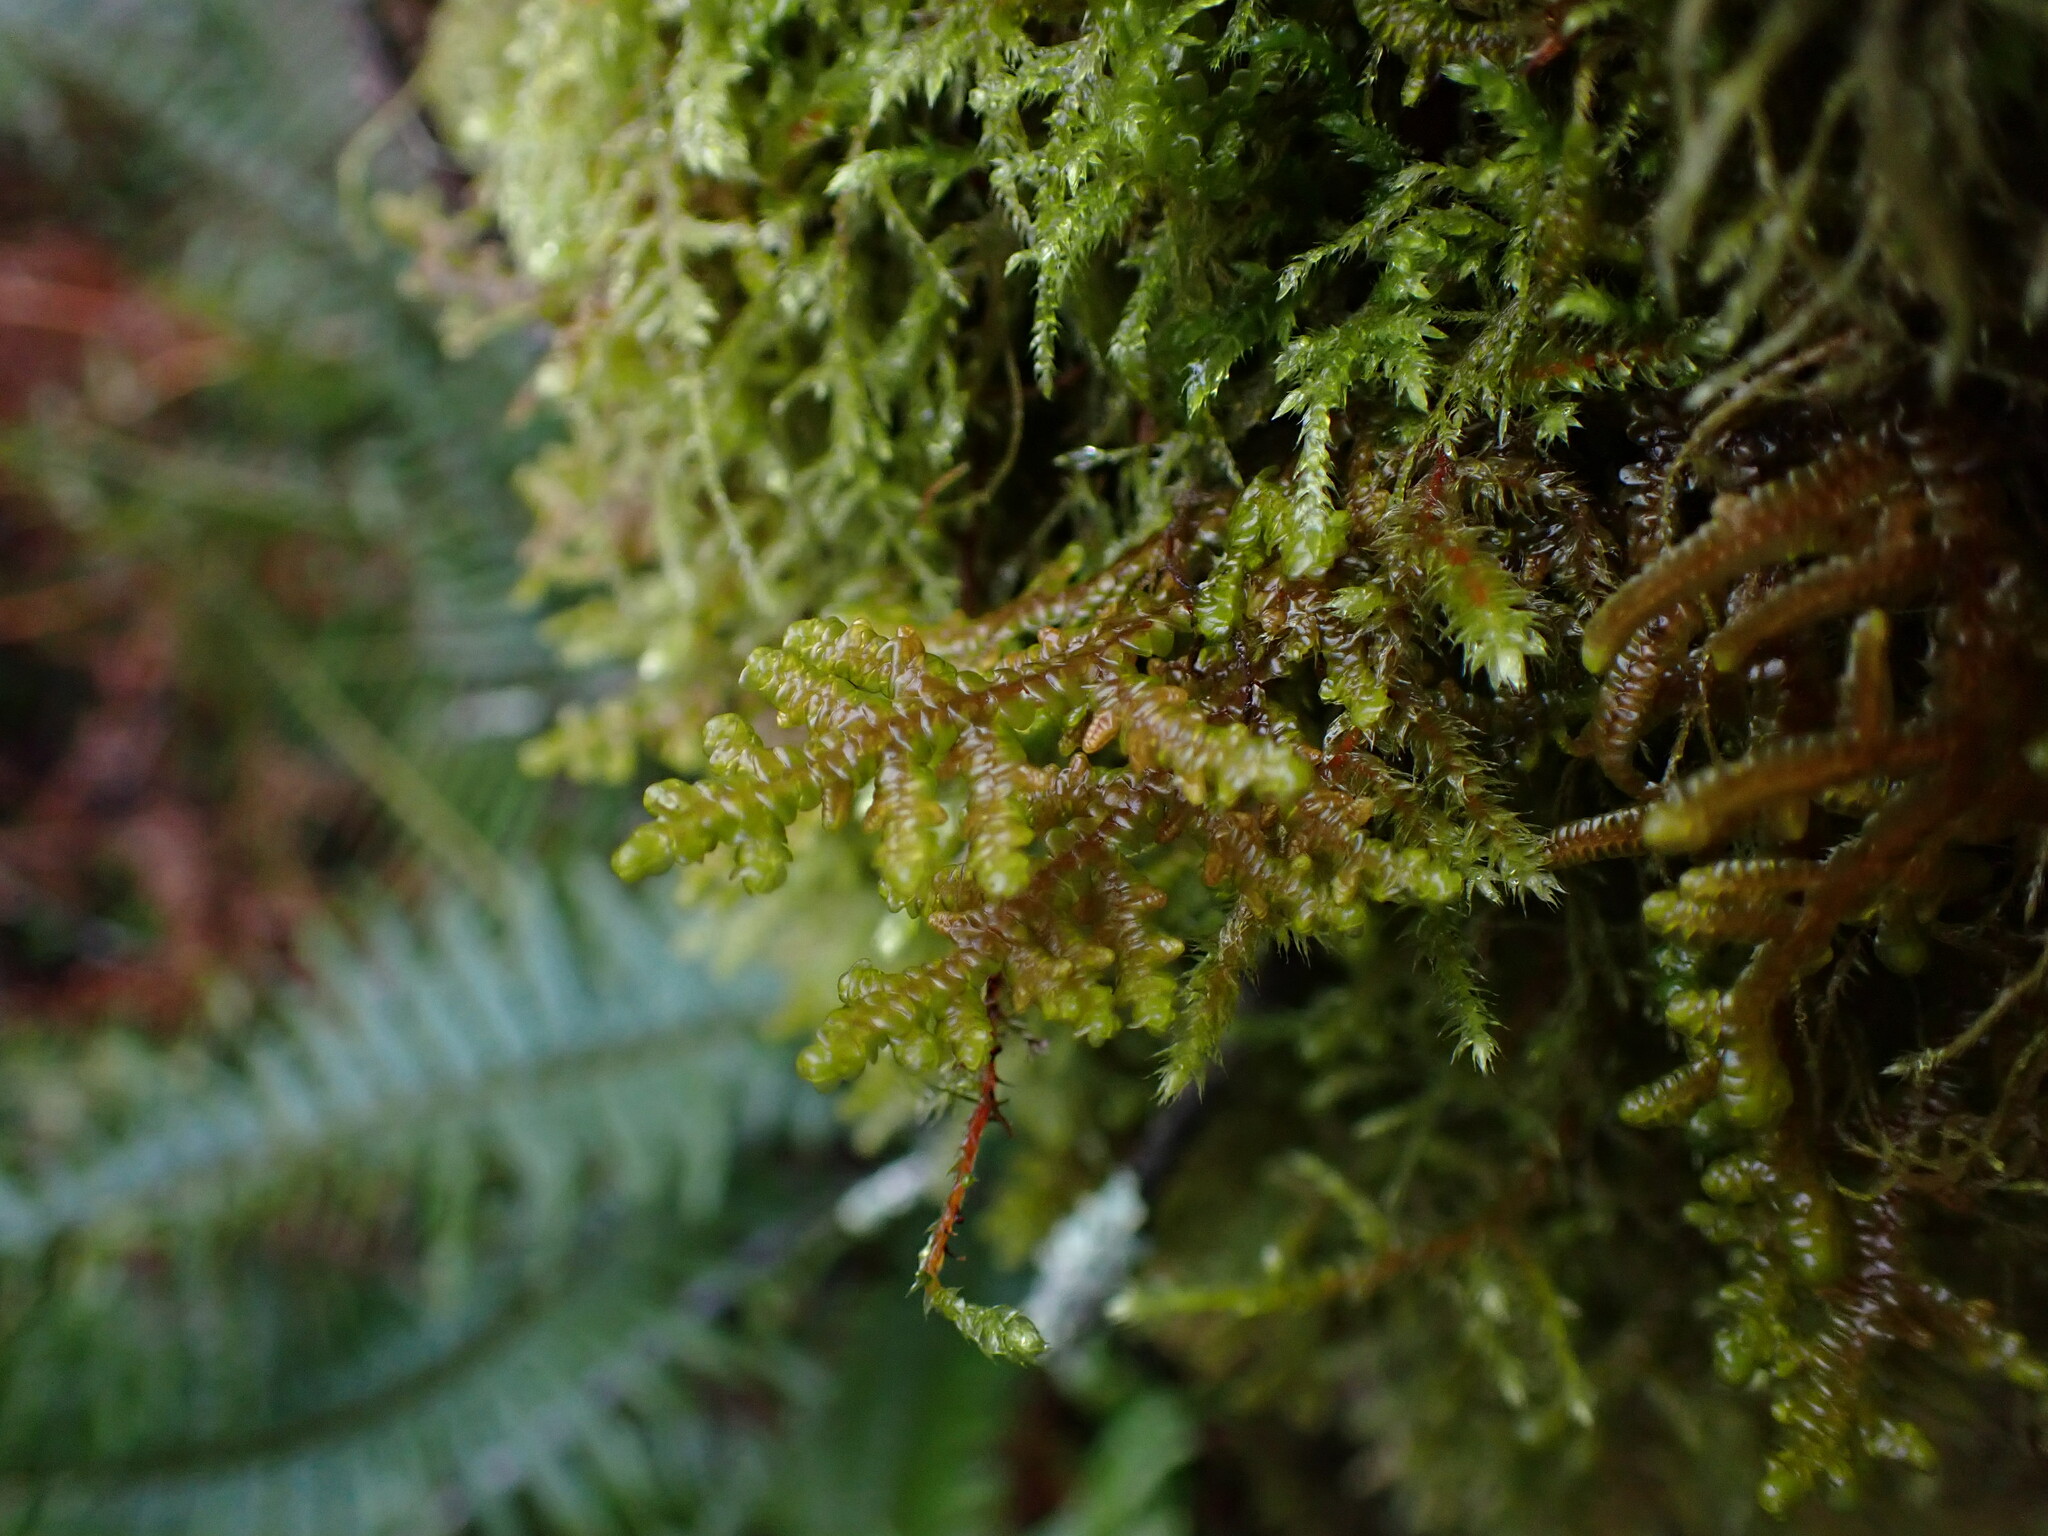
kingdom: Plantae
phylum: Marchantiophyta
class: Jungermanniopsida
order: Porellales
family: Porellaceae
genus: Porella
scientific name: Porella navicularis
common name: Tree ruffle liverwort
